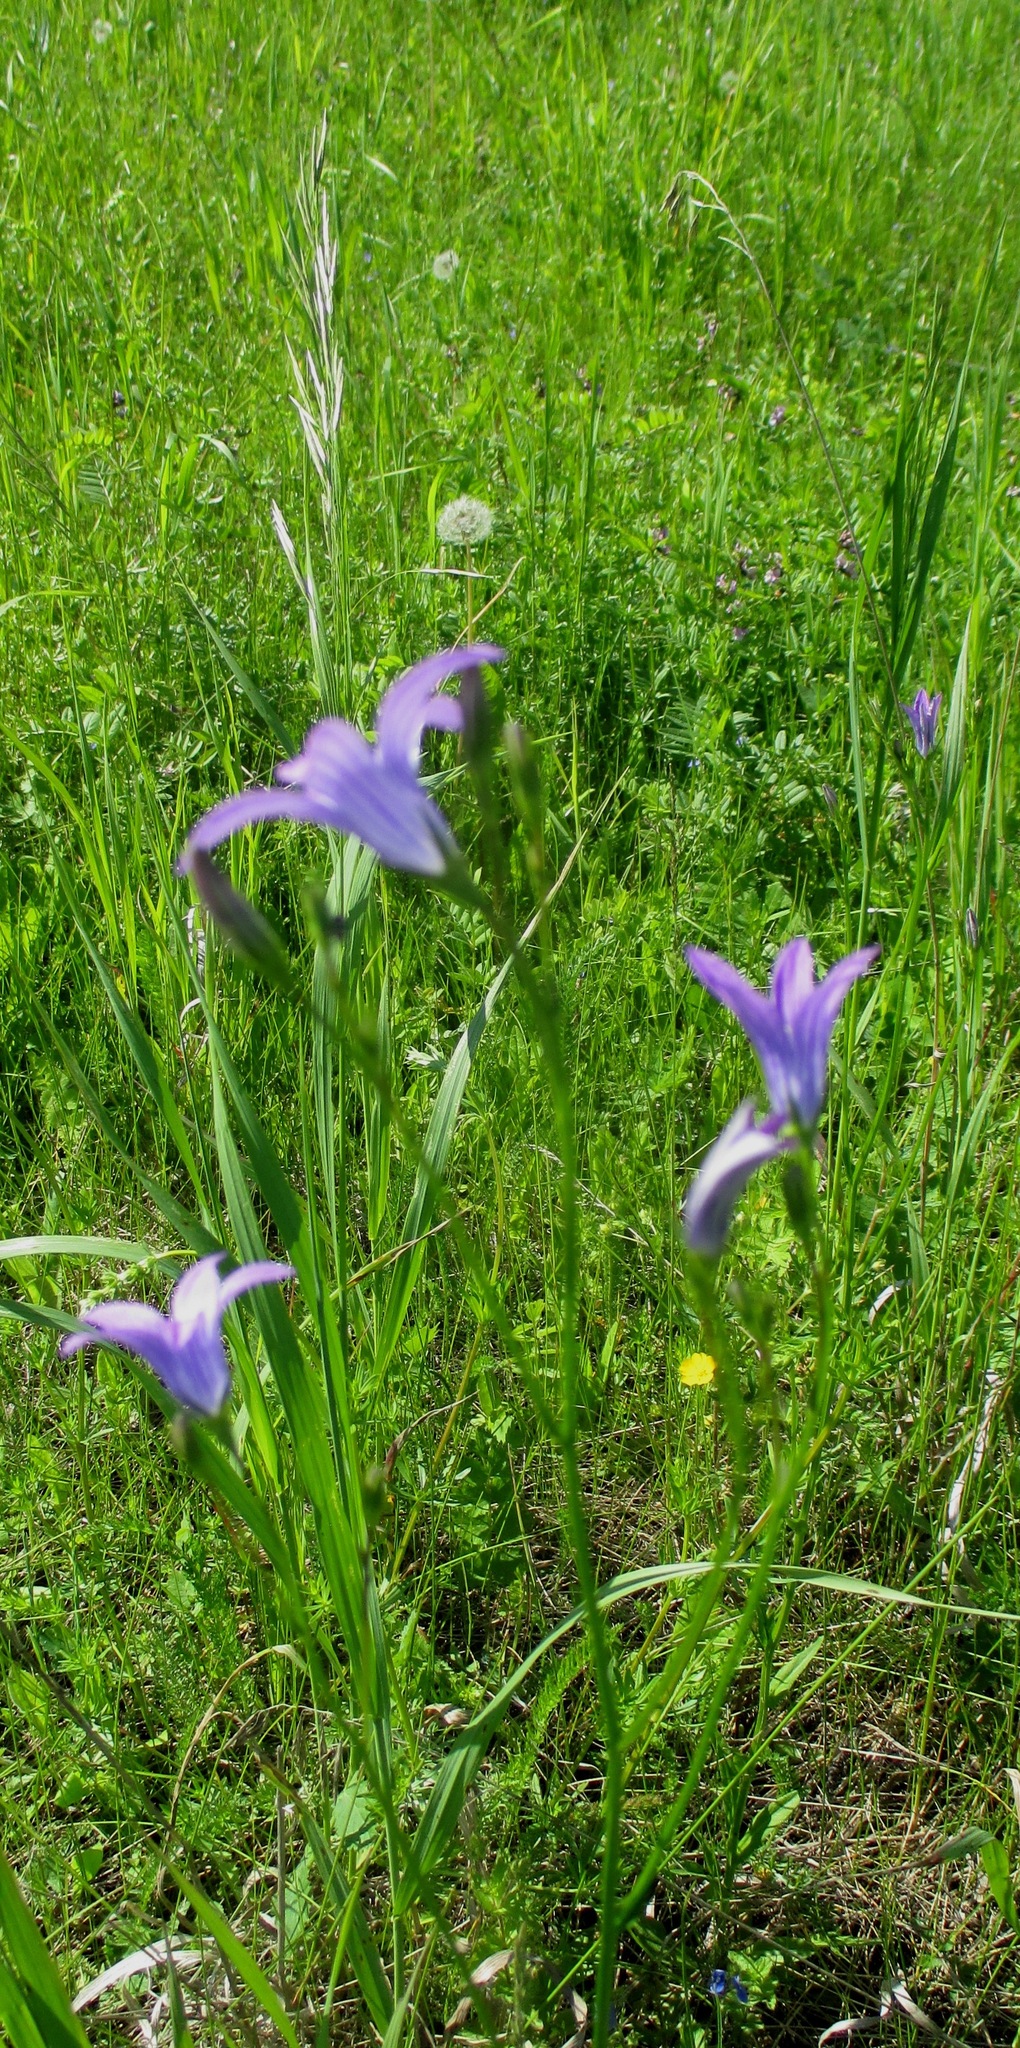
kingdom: Plantae
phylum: Tracheophyta
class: Magnoliopsida
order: Asterales
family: Campanulaceae
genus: Campanula
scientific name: Campanula patula
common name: Spreading bellflower
